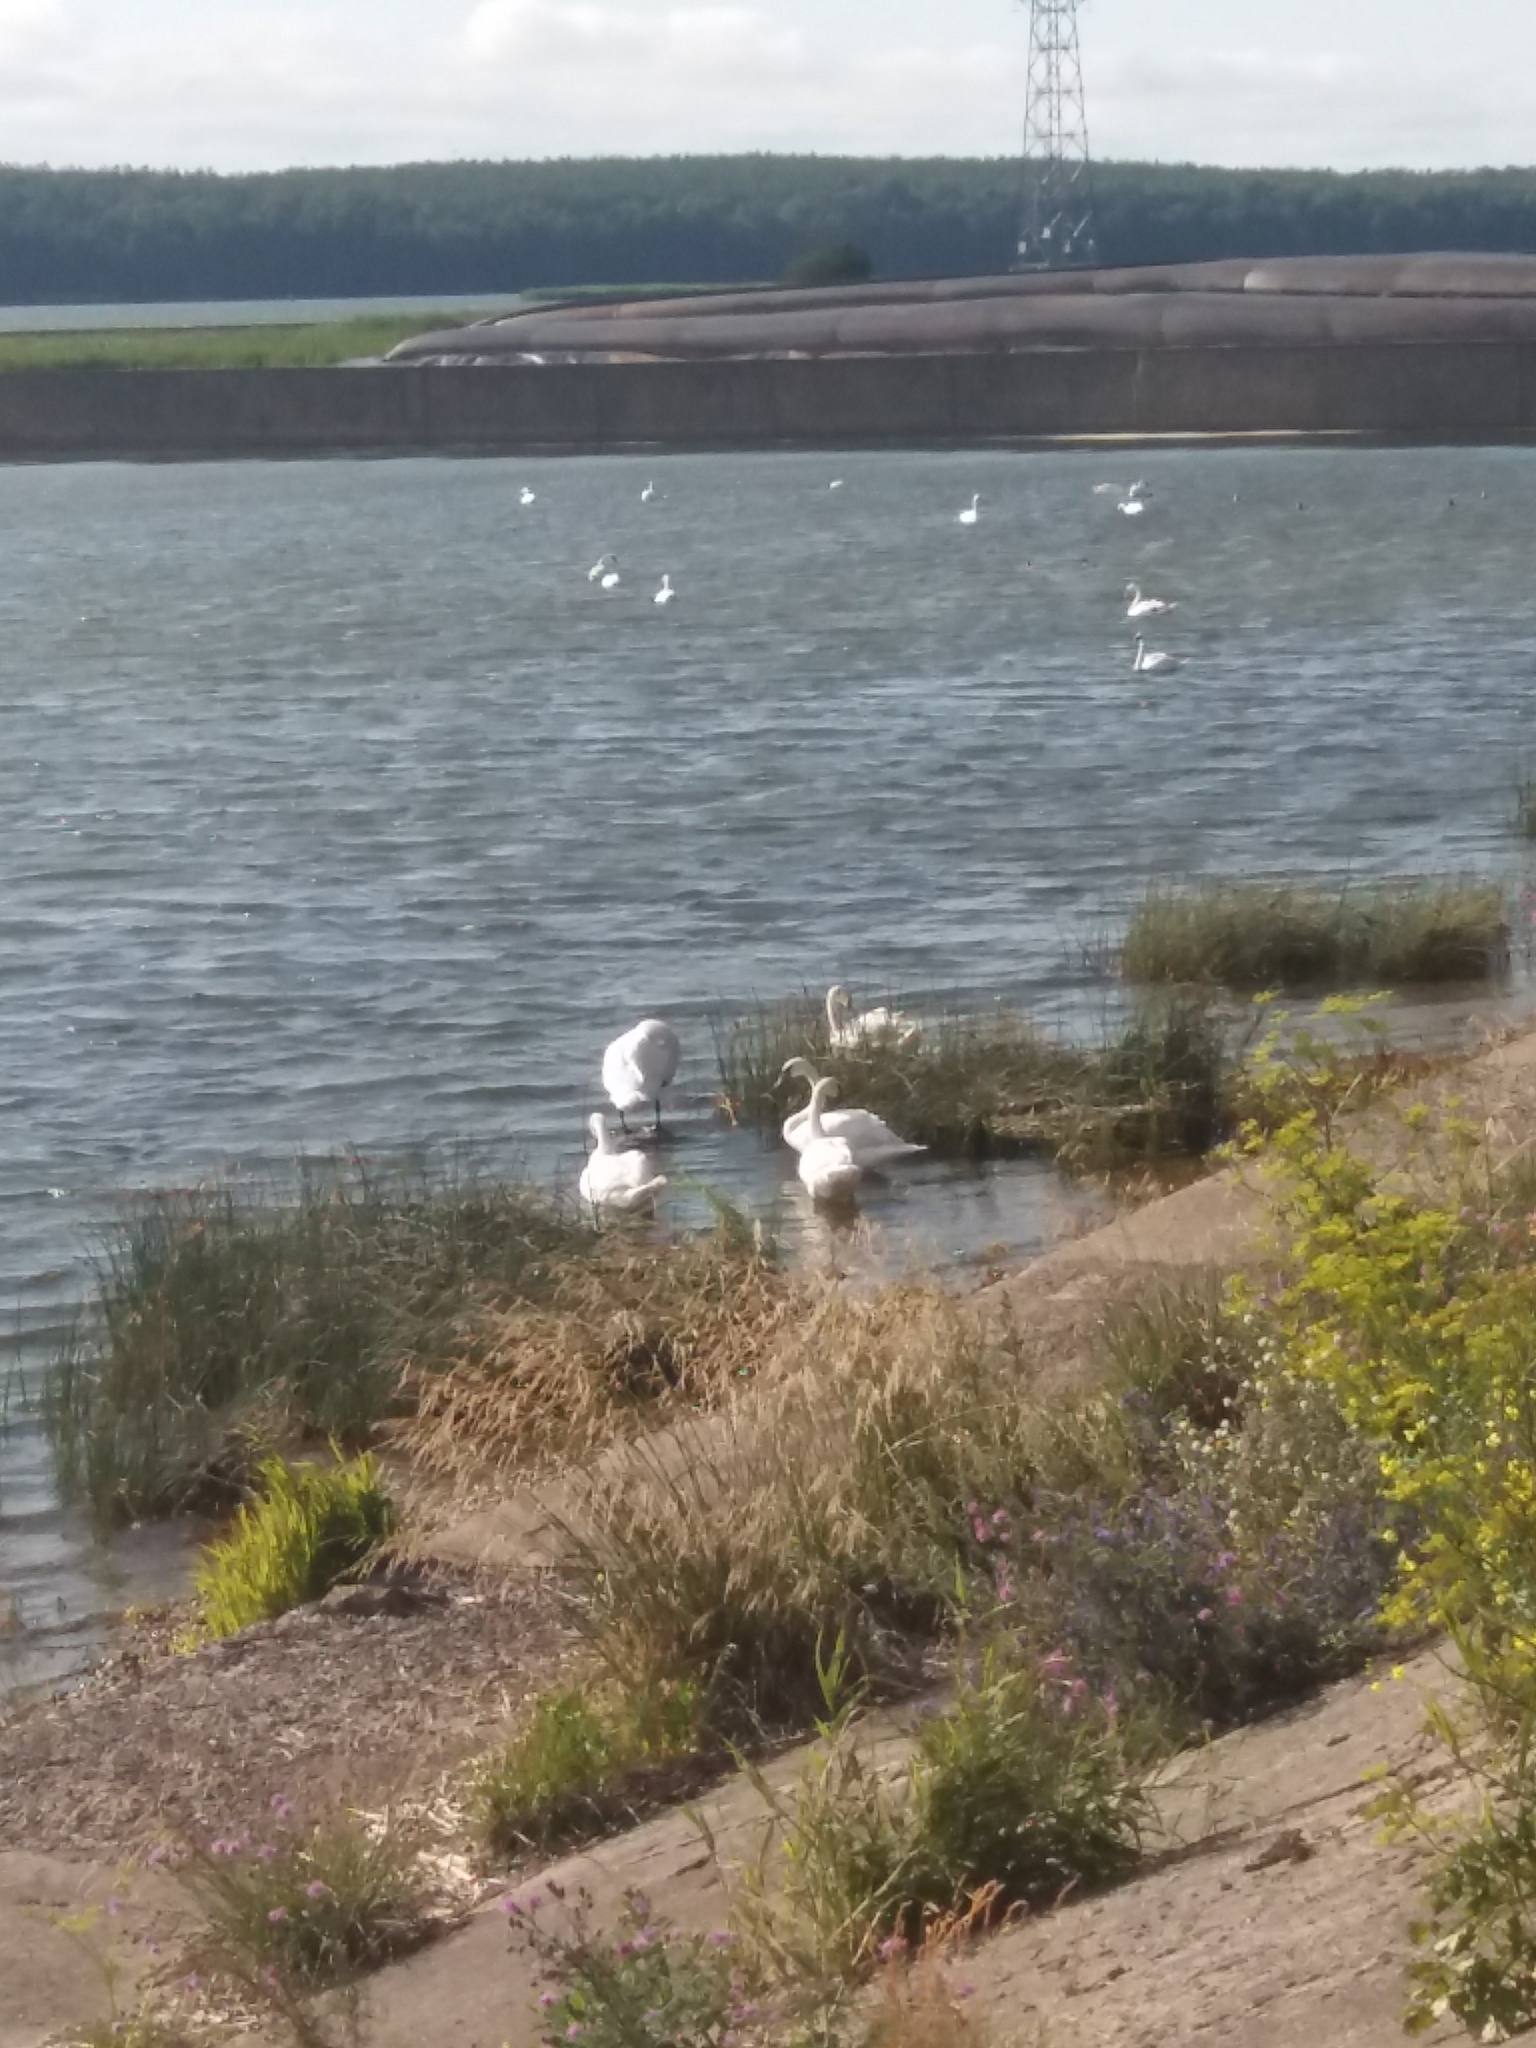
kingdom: Animalia
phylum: Chordata
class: Aves
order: Anseriformes
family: Anatidae
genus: Cygnus
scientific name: Cygnus olor
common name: Mute swan
